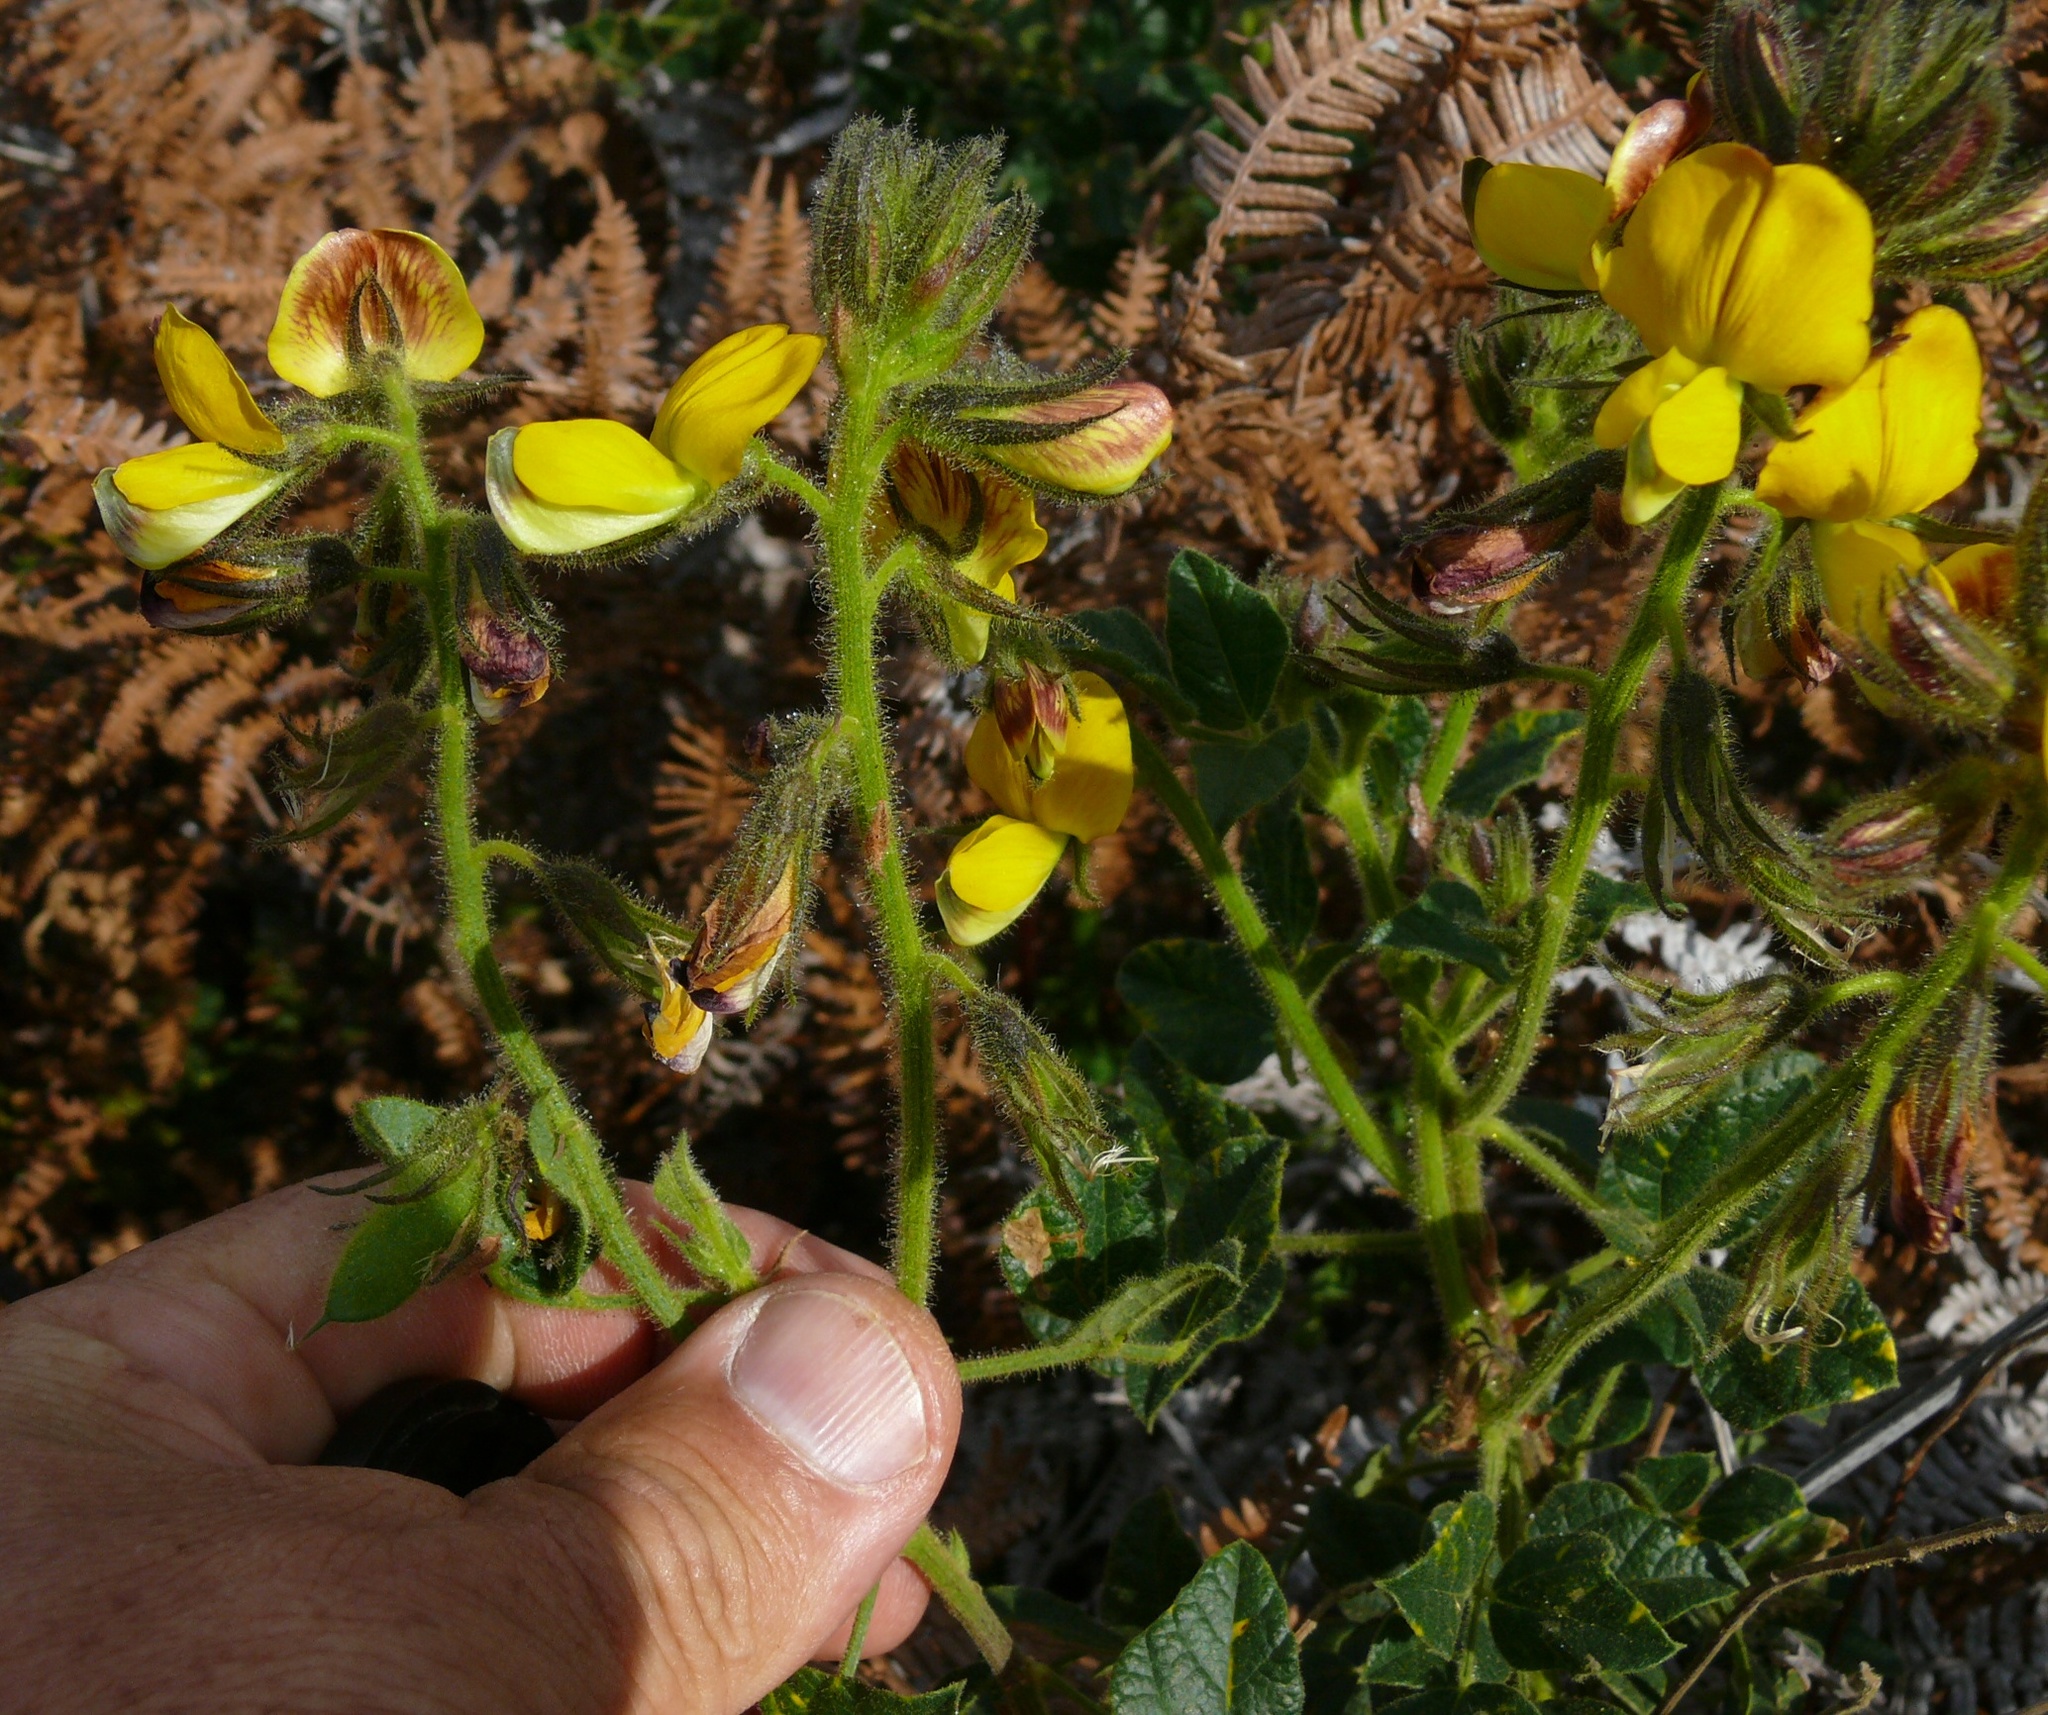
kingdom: Plantae
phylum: Tracheophyta
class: Magnoliopsida
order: Fabales
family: Fabaceae
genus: Bolusafra
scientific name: Bolusafra bituminosa
